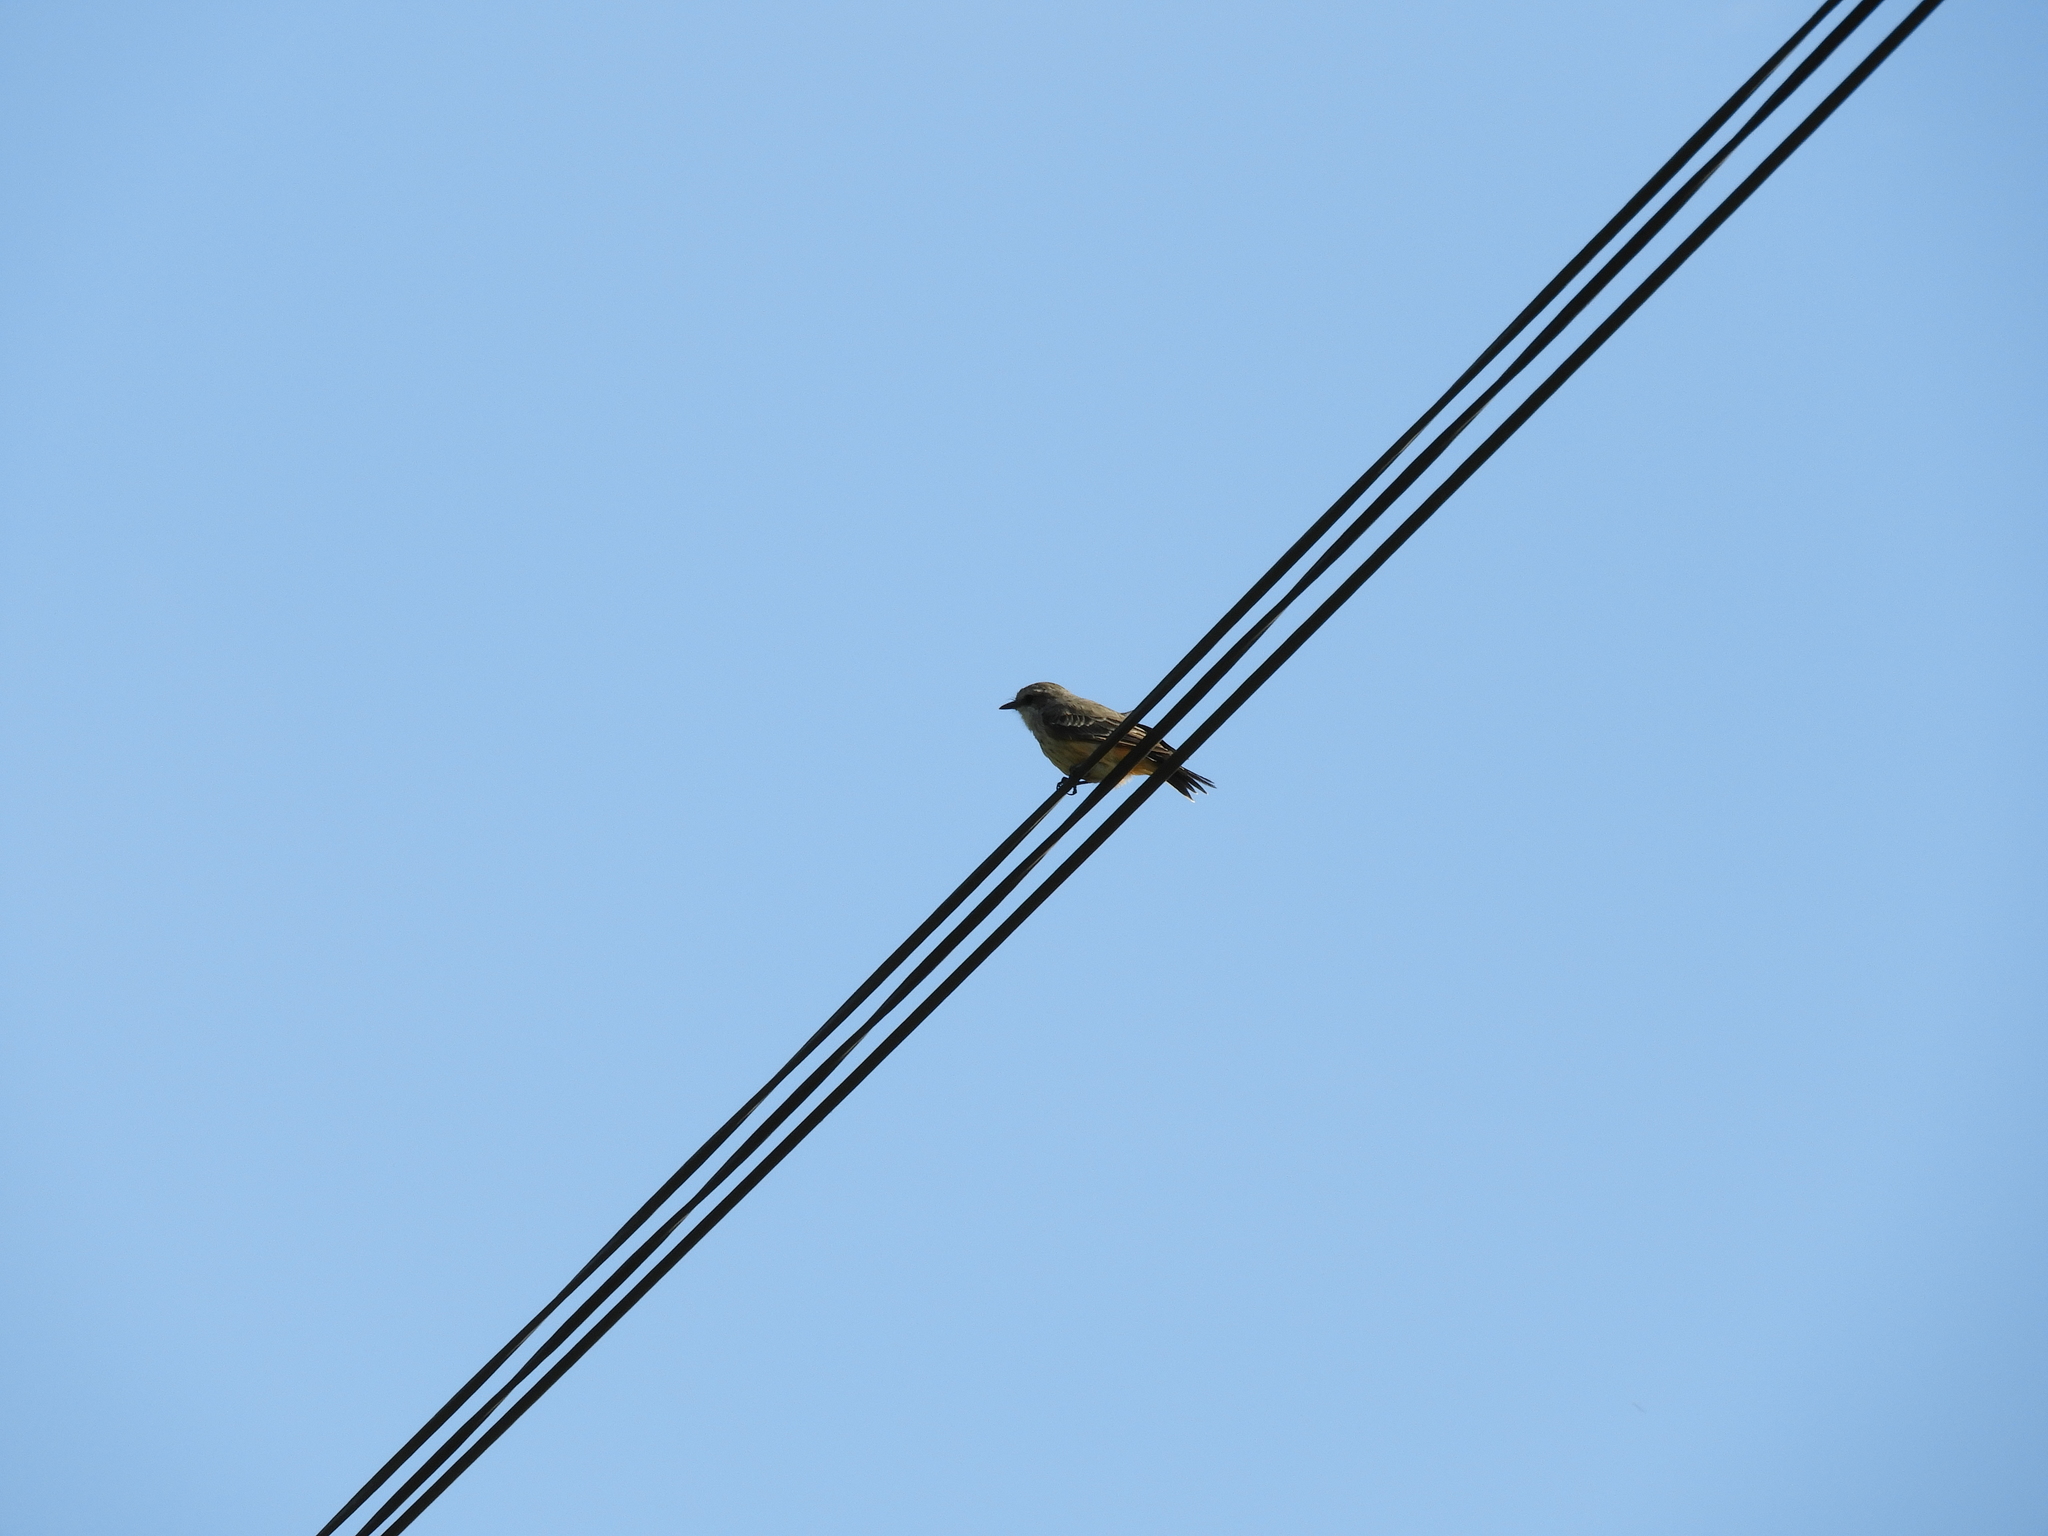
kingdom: Animalia
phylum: Chordata
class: Aves
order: Passeriformes
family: Tyrannidae
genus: Pyrocephalus
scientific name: Pyrocephalus rubinus
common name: Vermilion flycatcher
